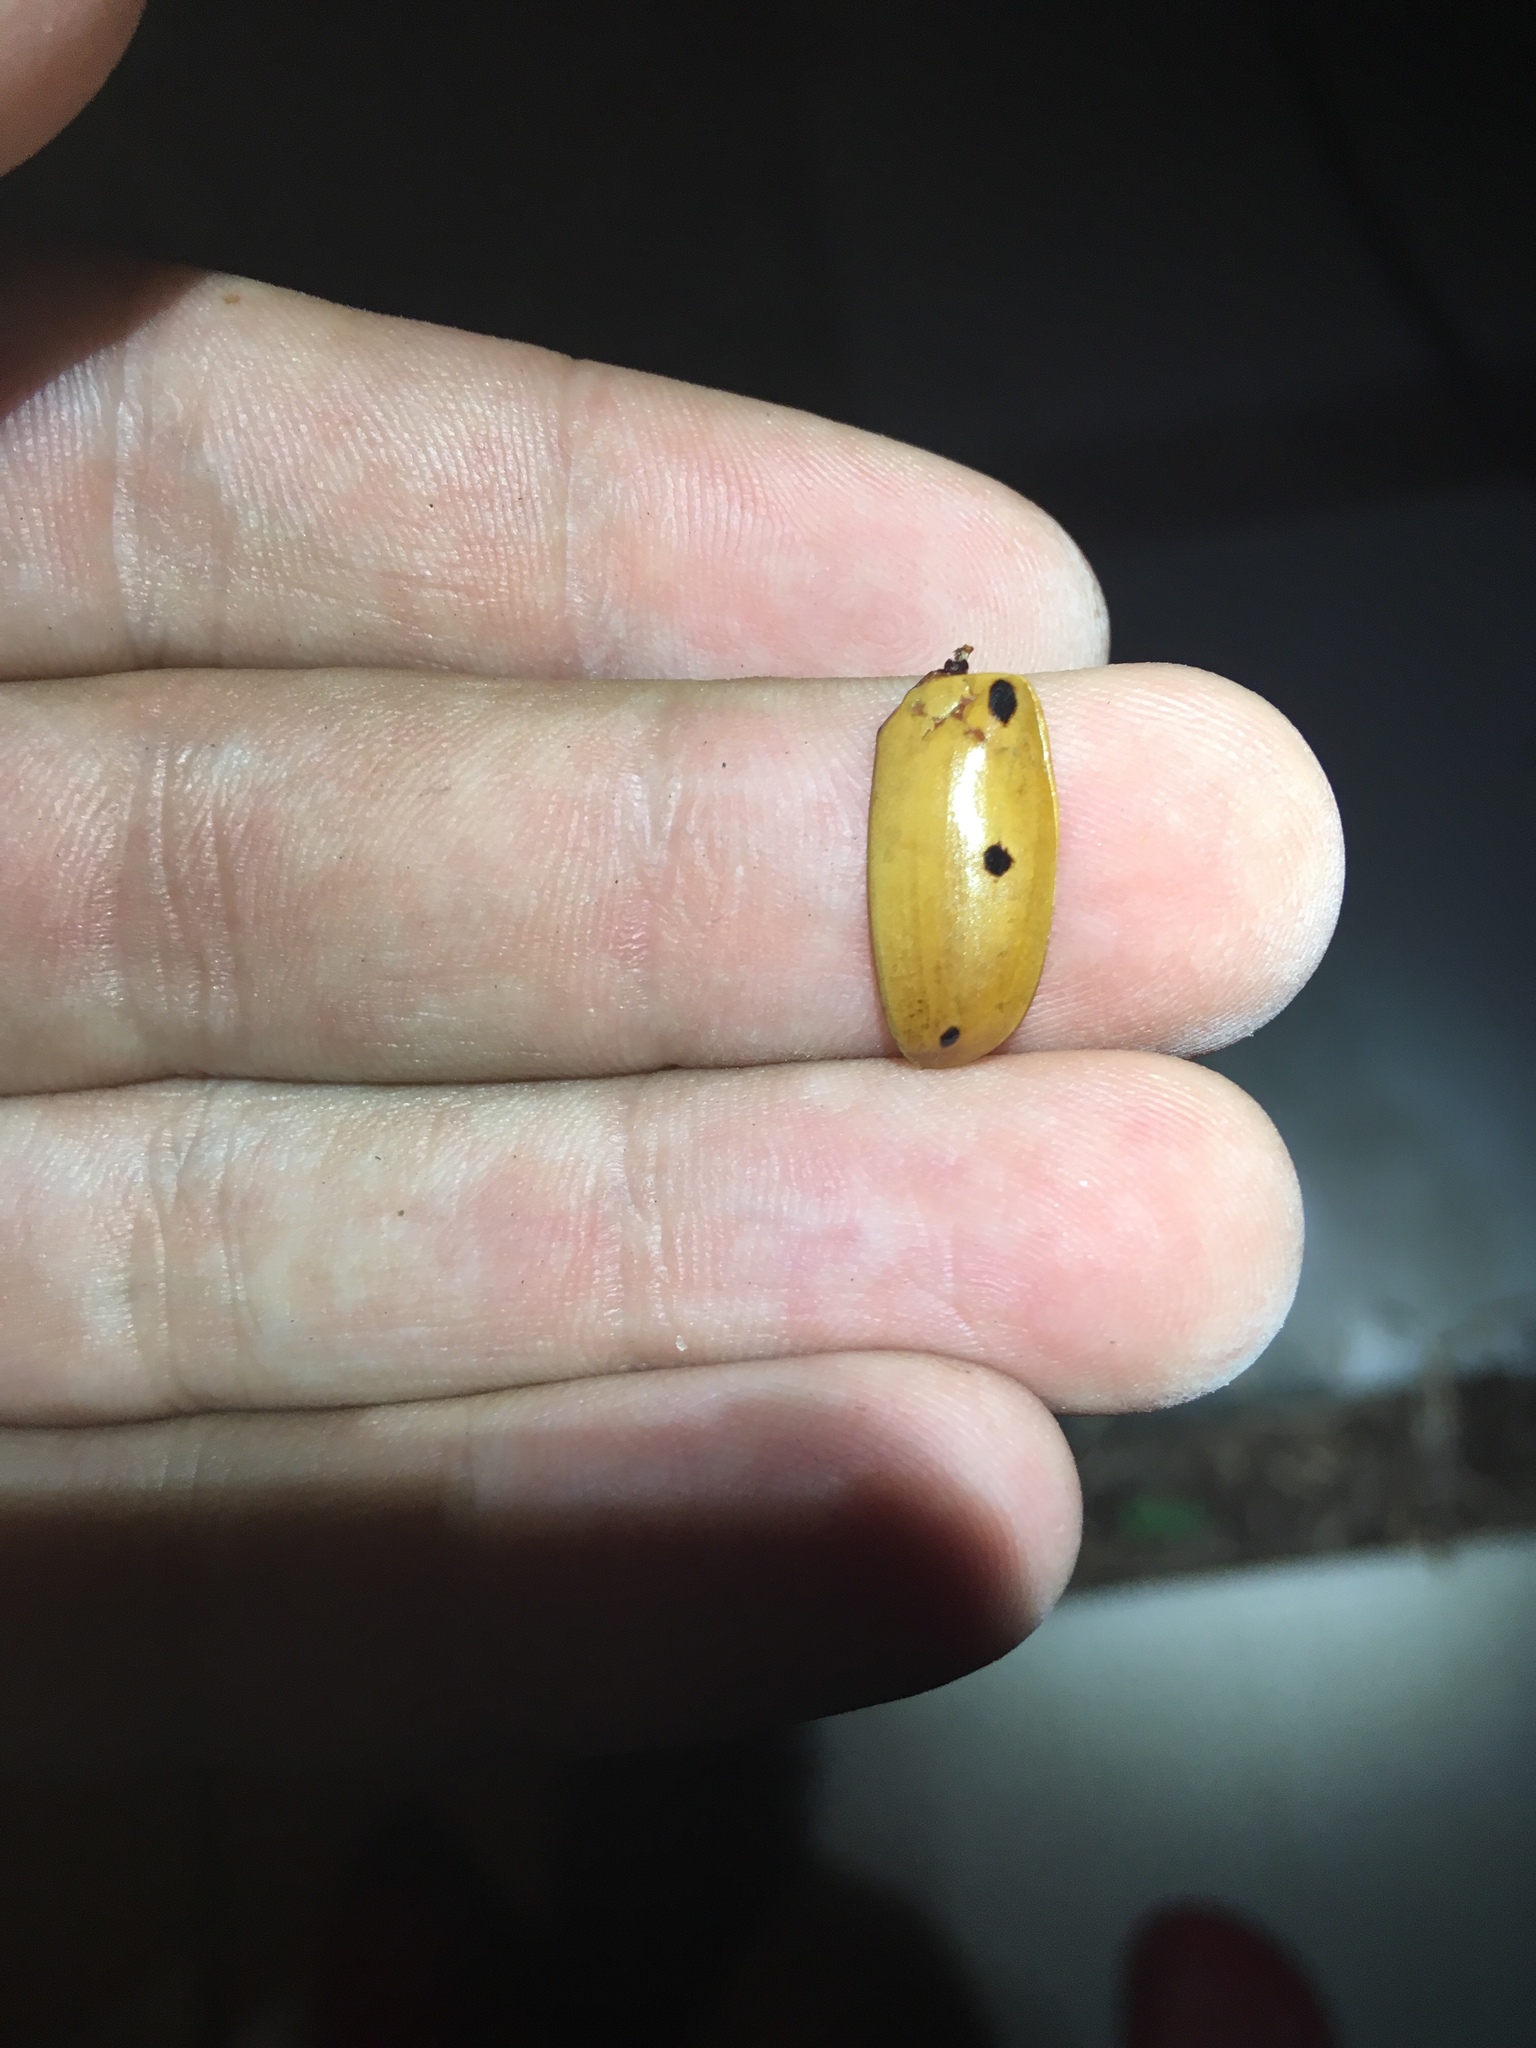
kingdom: Animalia
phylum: Arthropoda
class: Insecta
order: Coleoptera
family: Scarabaeidae
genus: Pelidnota
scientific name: Pelidnota punctata
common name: Grapevine beetle
